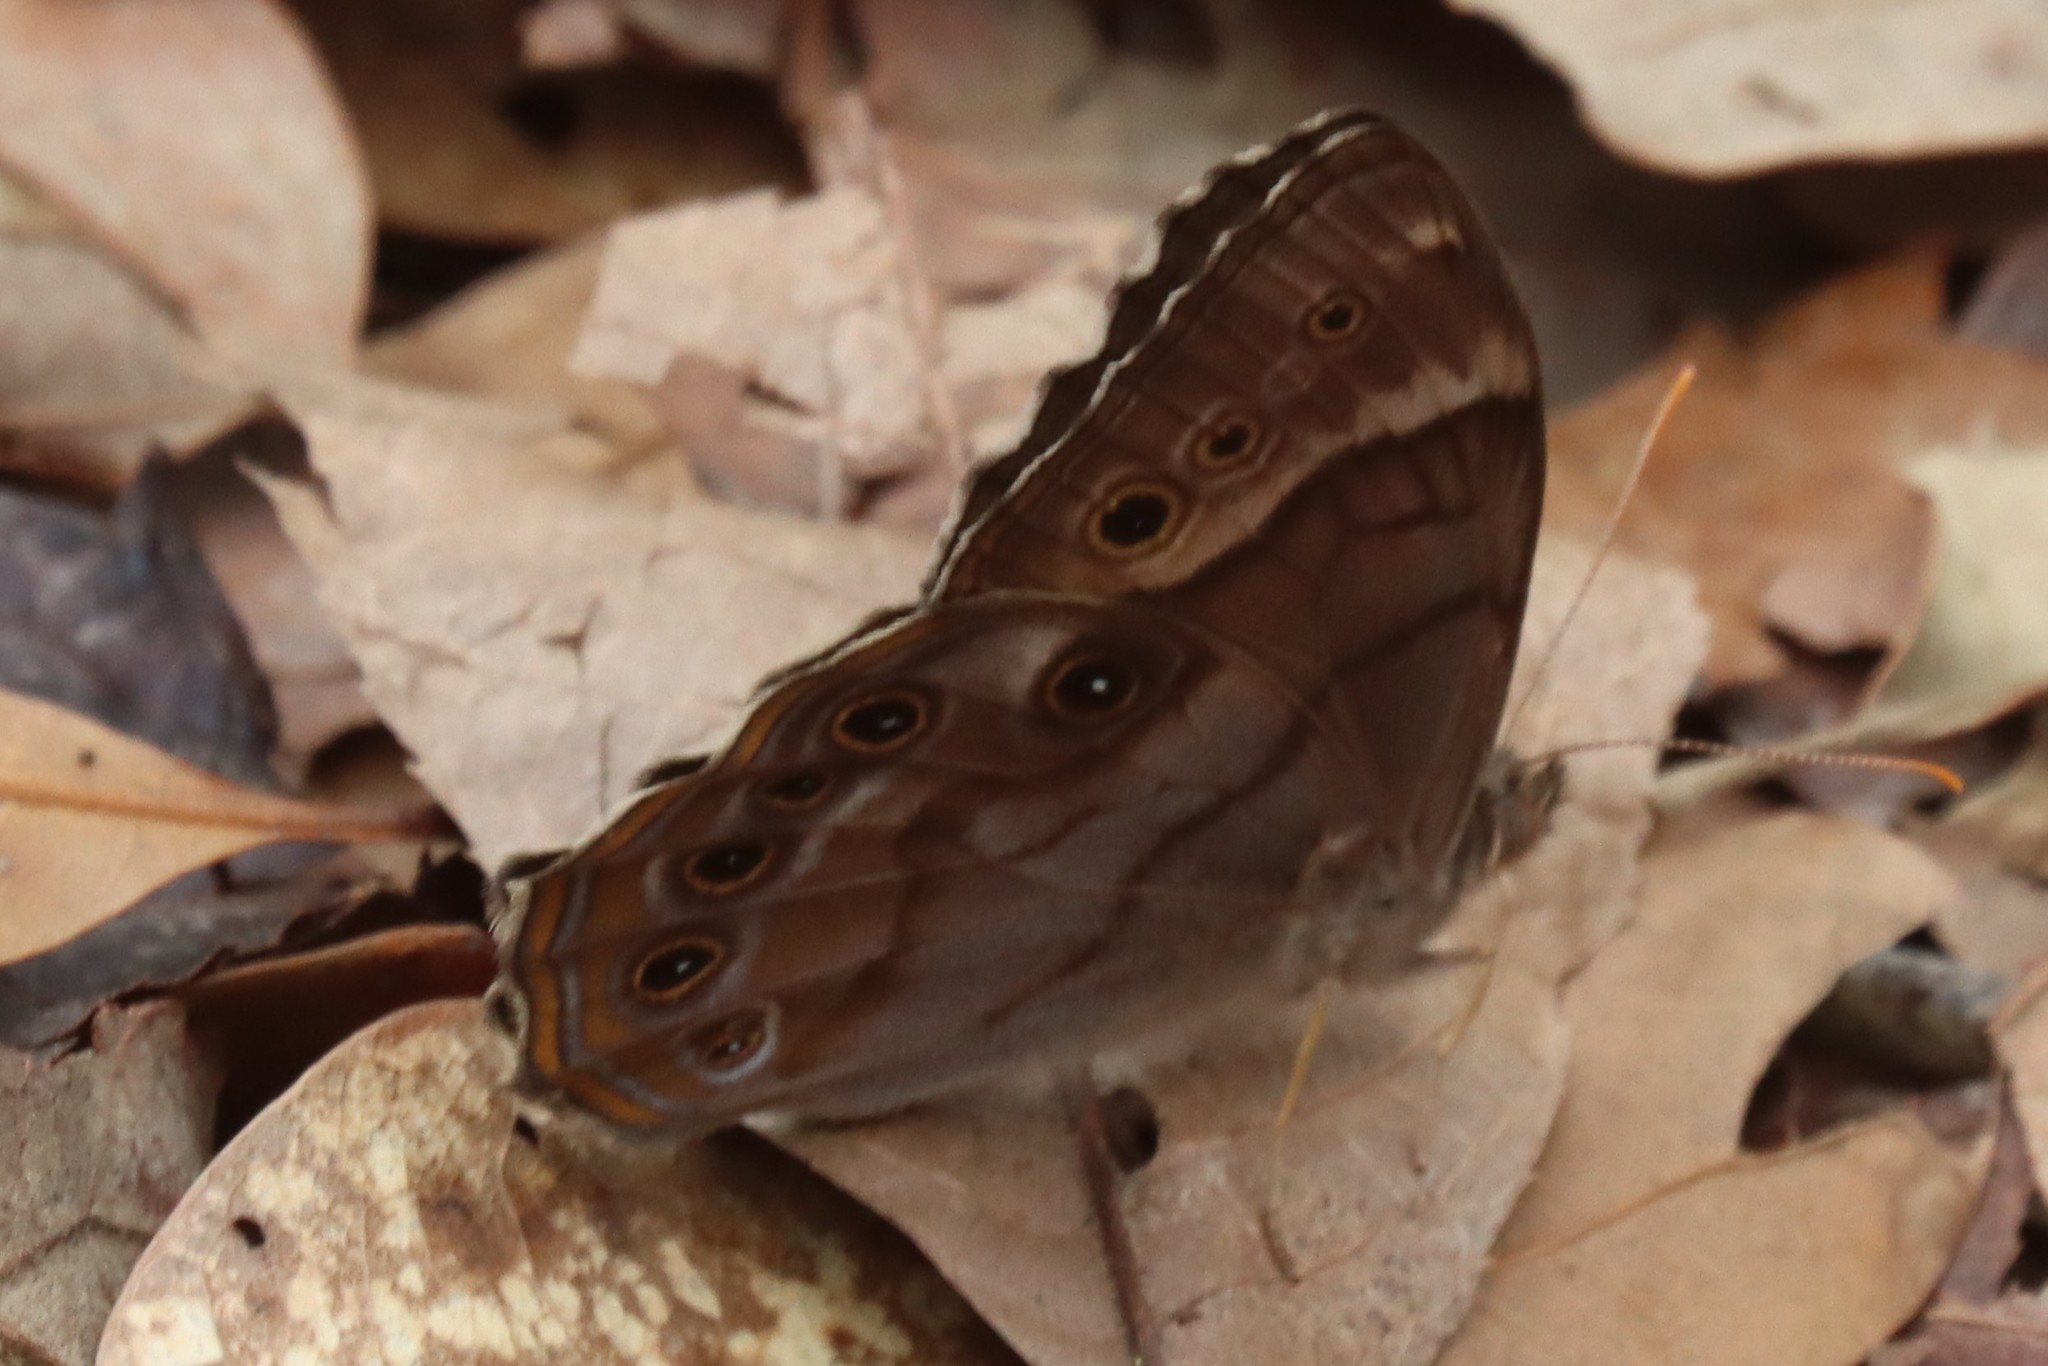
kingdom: Animalia
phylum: Arthropoda
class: Insecta
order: Lepidoptera
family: Nymphalidae
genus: Enodia
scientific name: Enodia portlandia
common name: Southern pearly-eye
